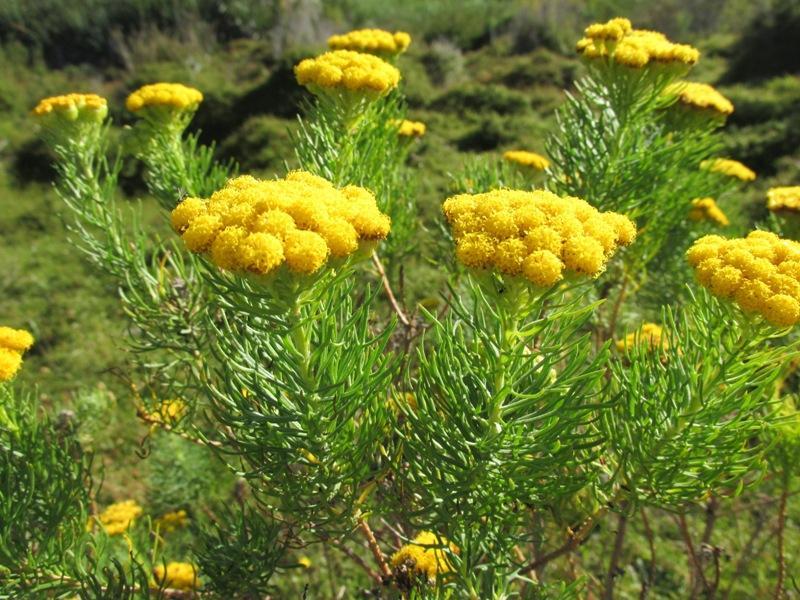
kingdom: Plantae
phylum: Tracheophyta
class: Magnoliopsida
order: Asterales
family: Asteraceae
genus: Athanasia
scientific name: Athanasia crithmifolia
